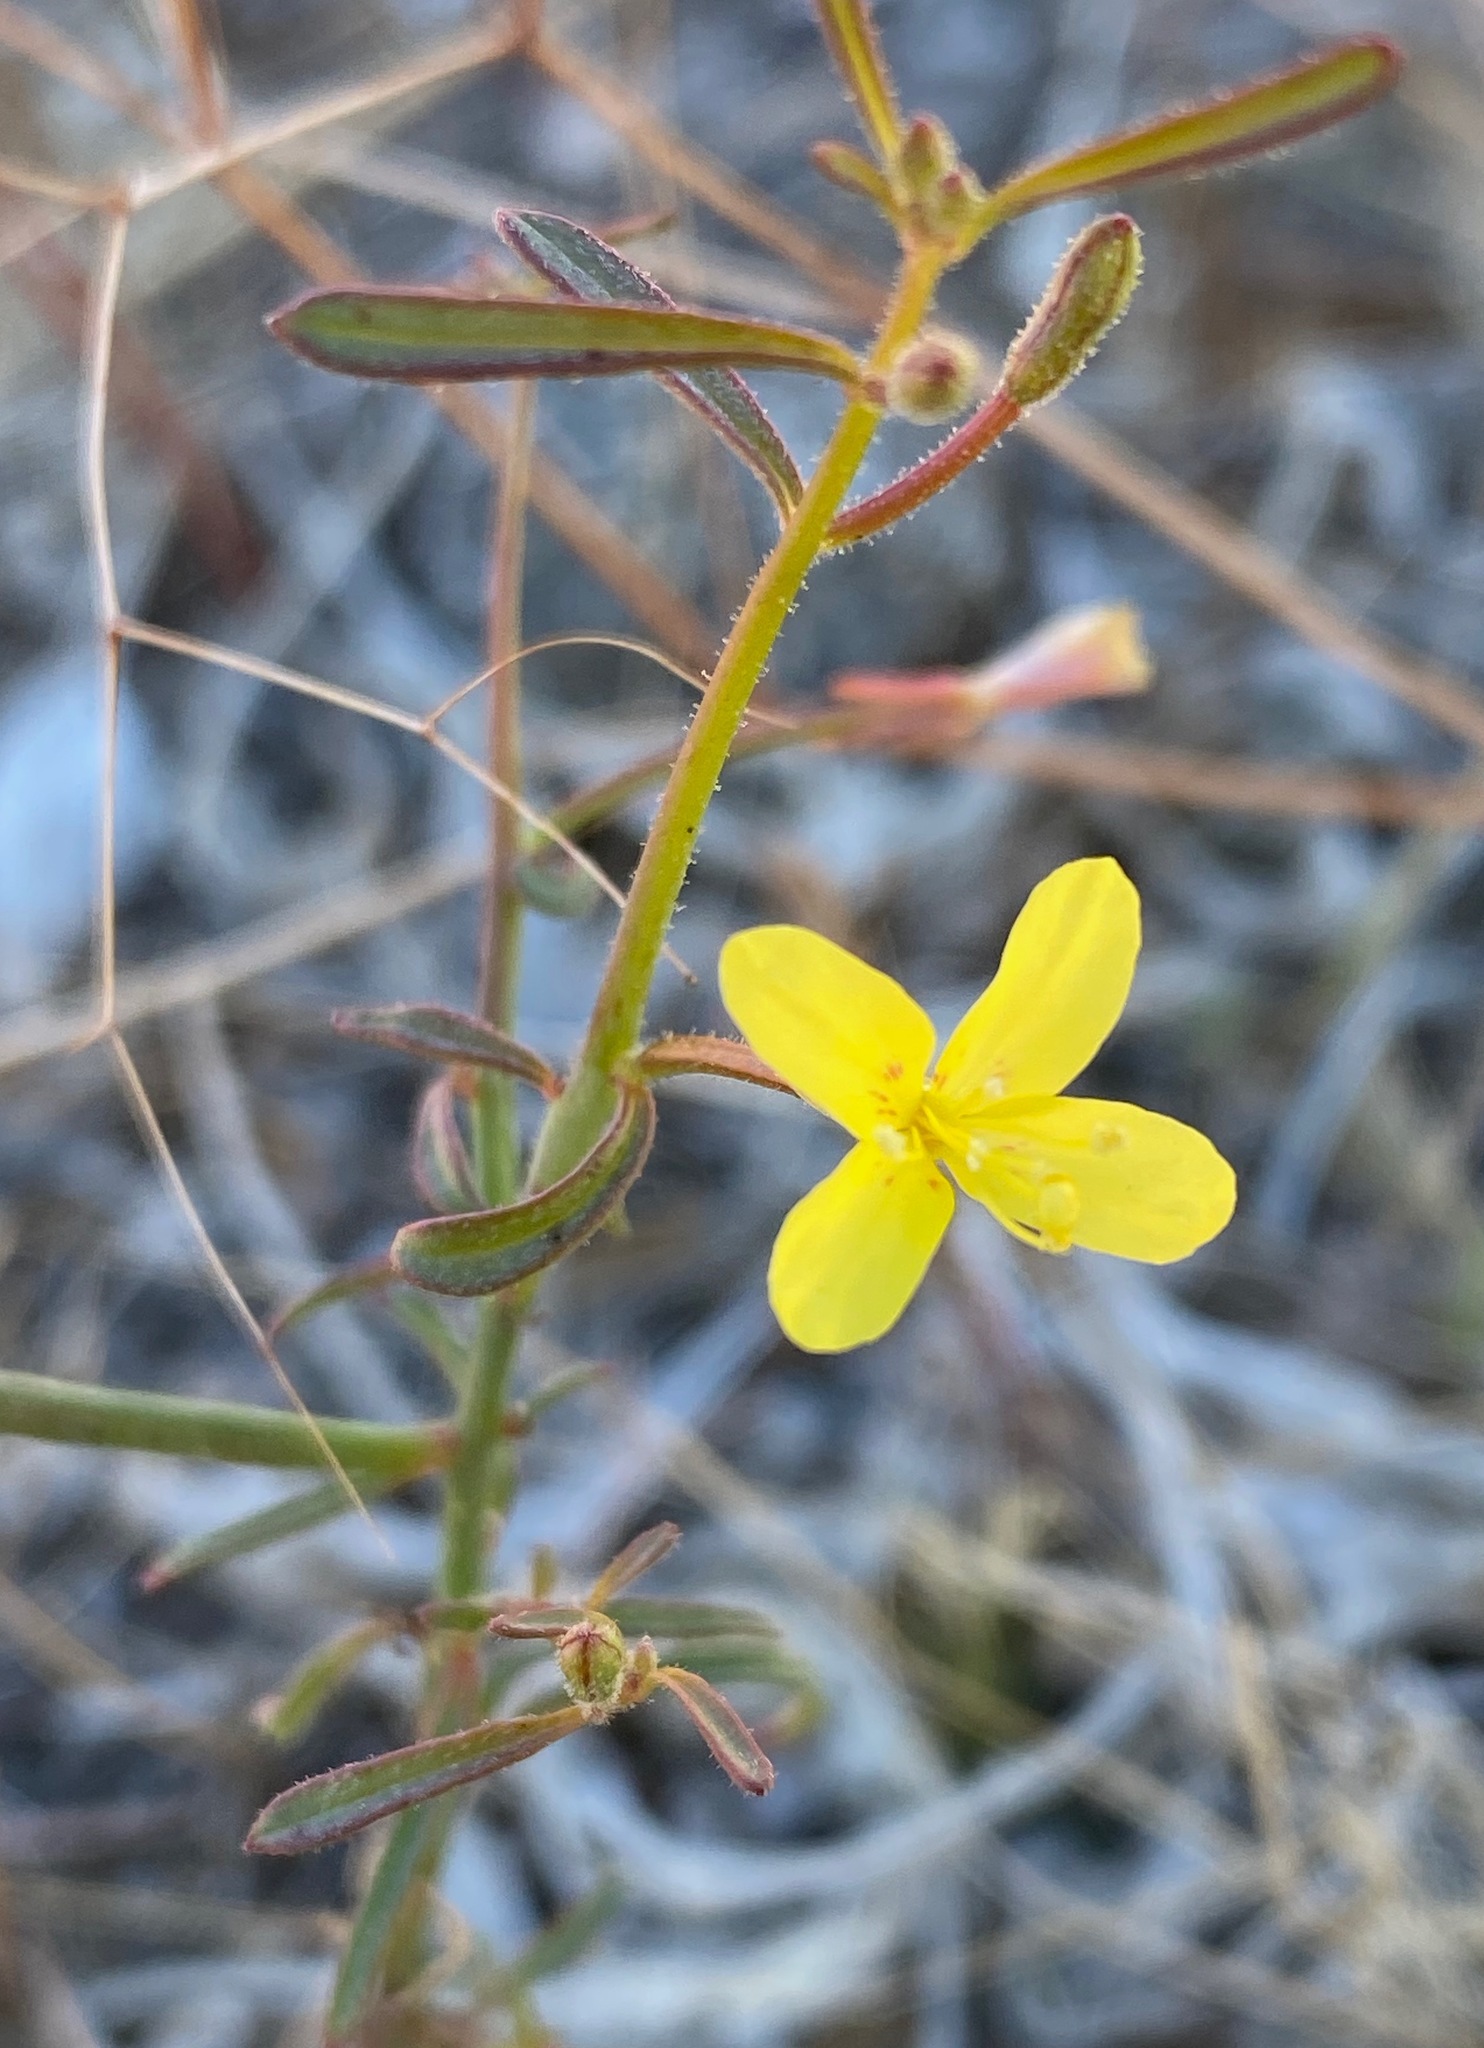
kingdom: Plantae
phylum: Tracheophyta
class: Magnoliopsida
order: Myrtales
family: Onagraceae
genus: Eulobus
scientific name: Eulobus californicus
